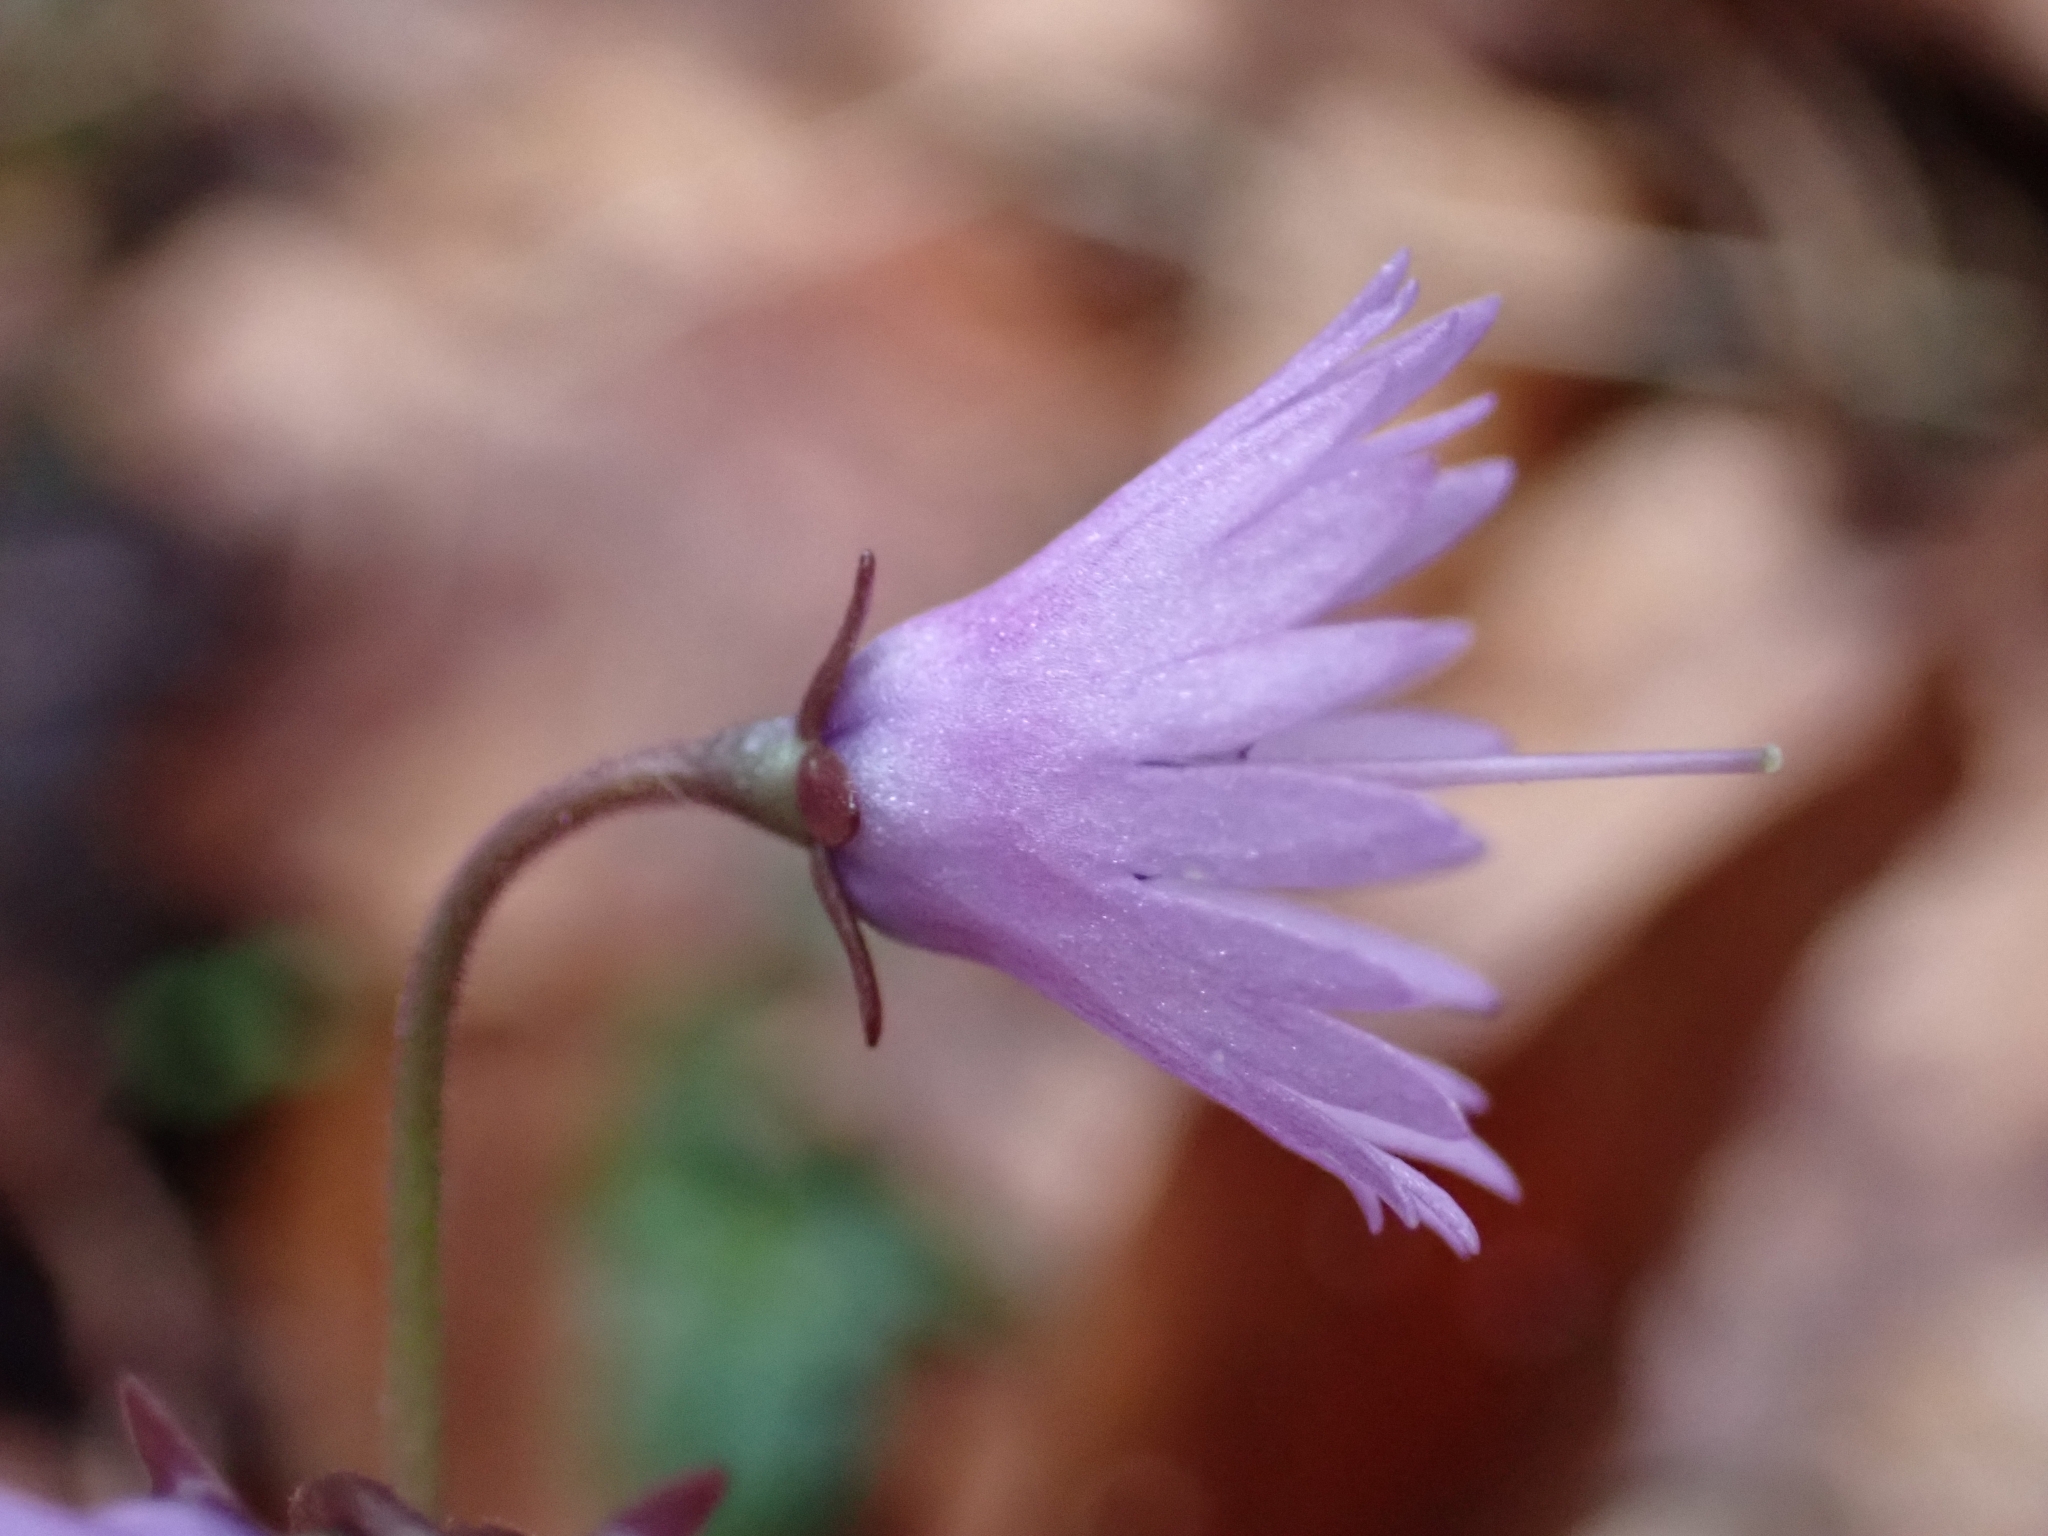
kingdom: Plantae
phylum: Tracheophyta
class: Magnoliopsida
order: Ericales
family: Primulaceae
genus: Soldanella
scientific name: Soldanella montana
